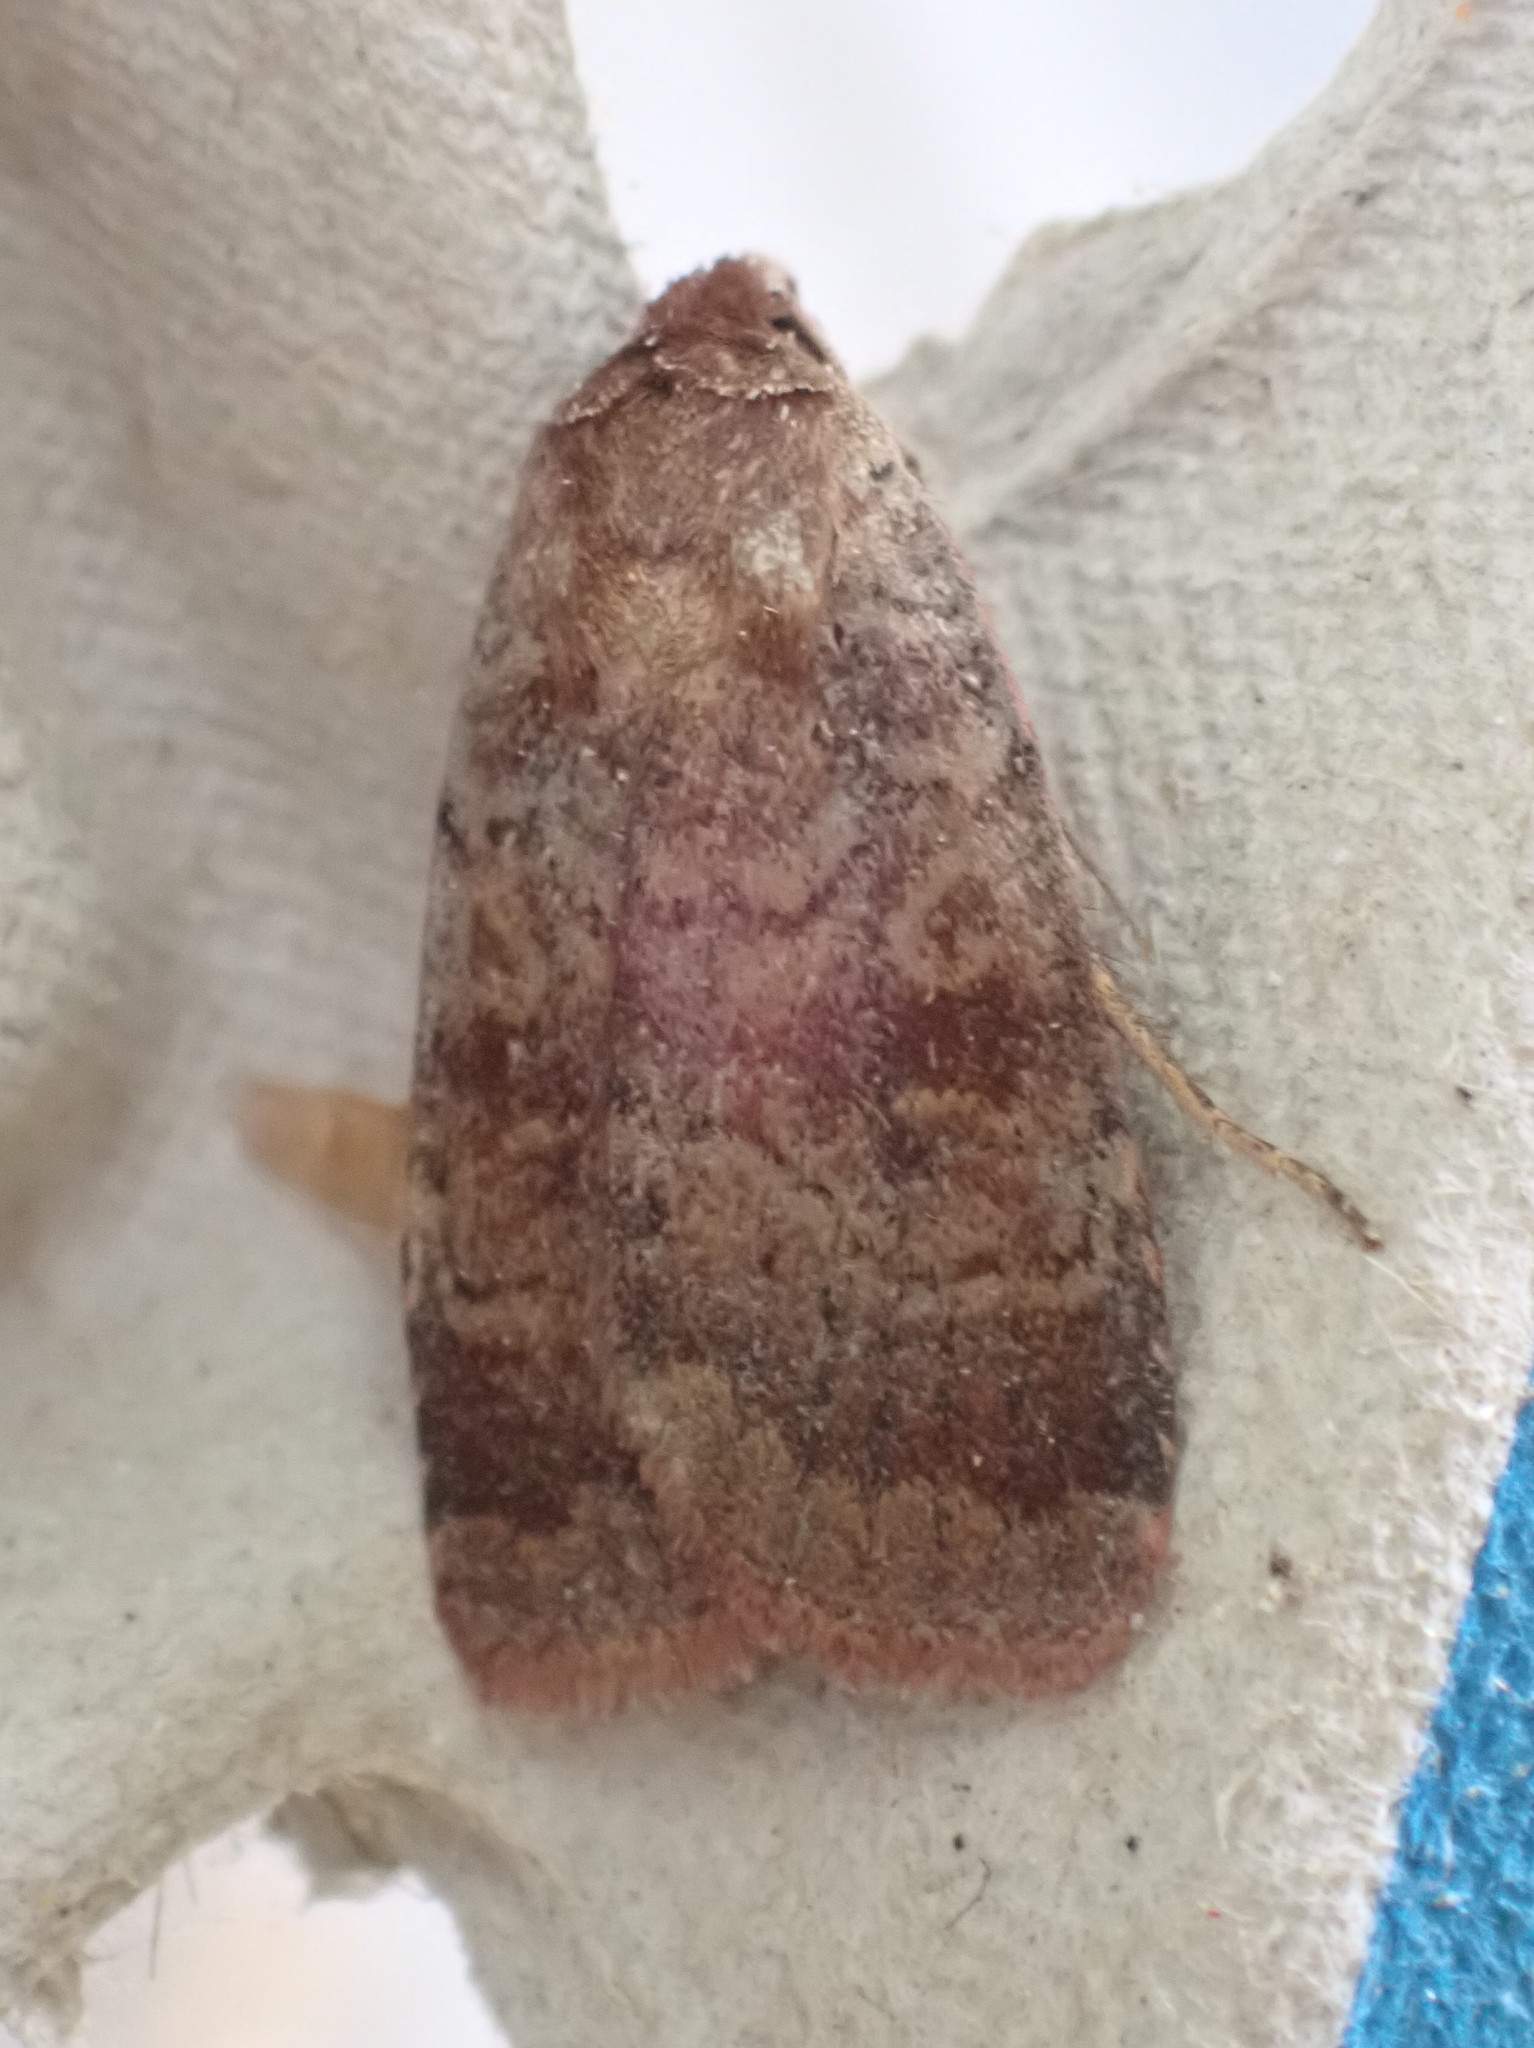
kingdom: Animalia
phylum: Arthropoda
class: Insecta
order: Lepidoptera
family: Noctuidae
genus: Lycophotia
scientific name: Lycophotia phyllophora
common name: Lycophotia moth
